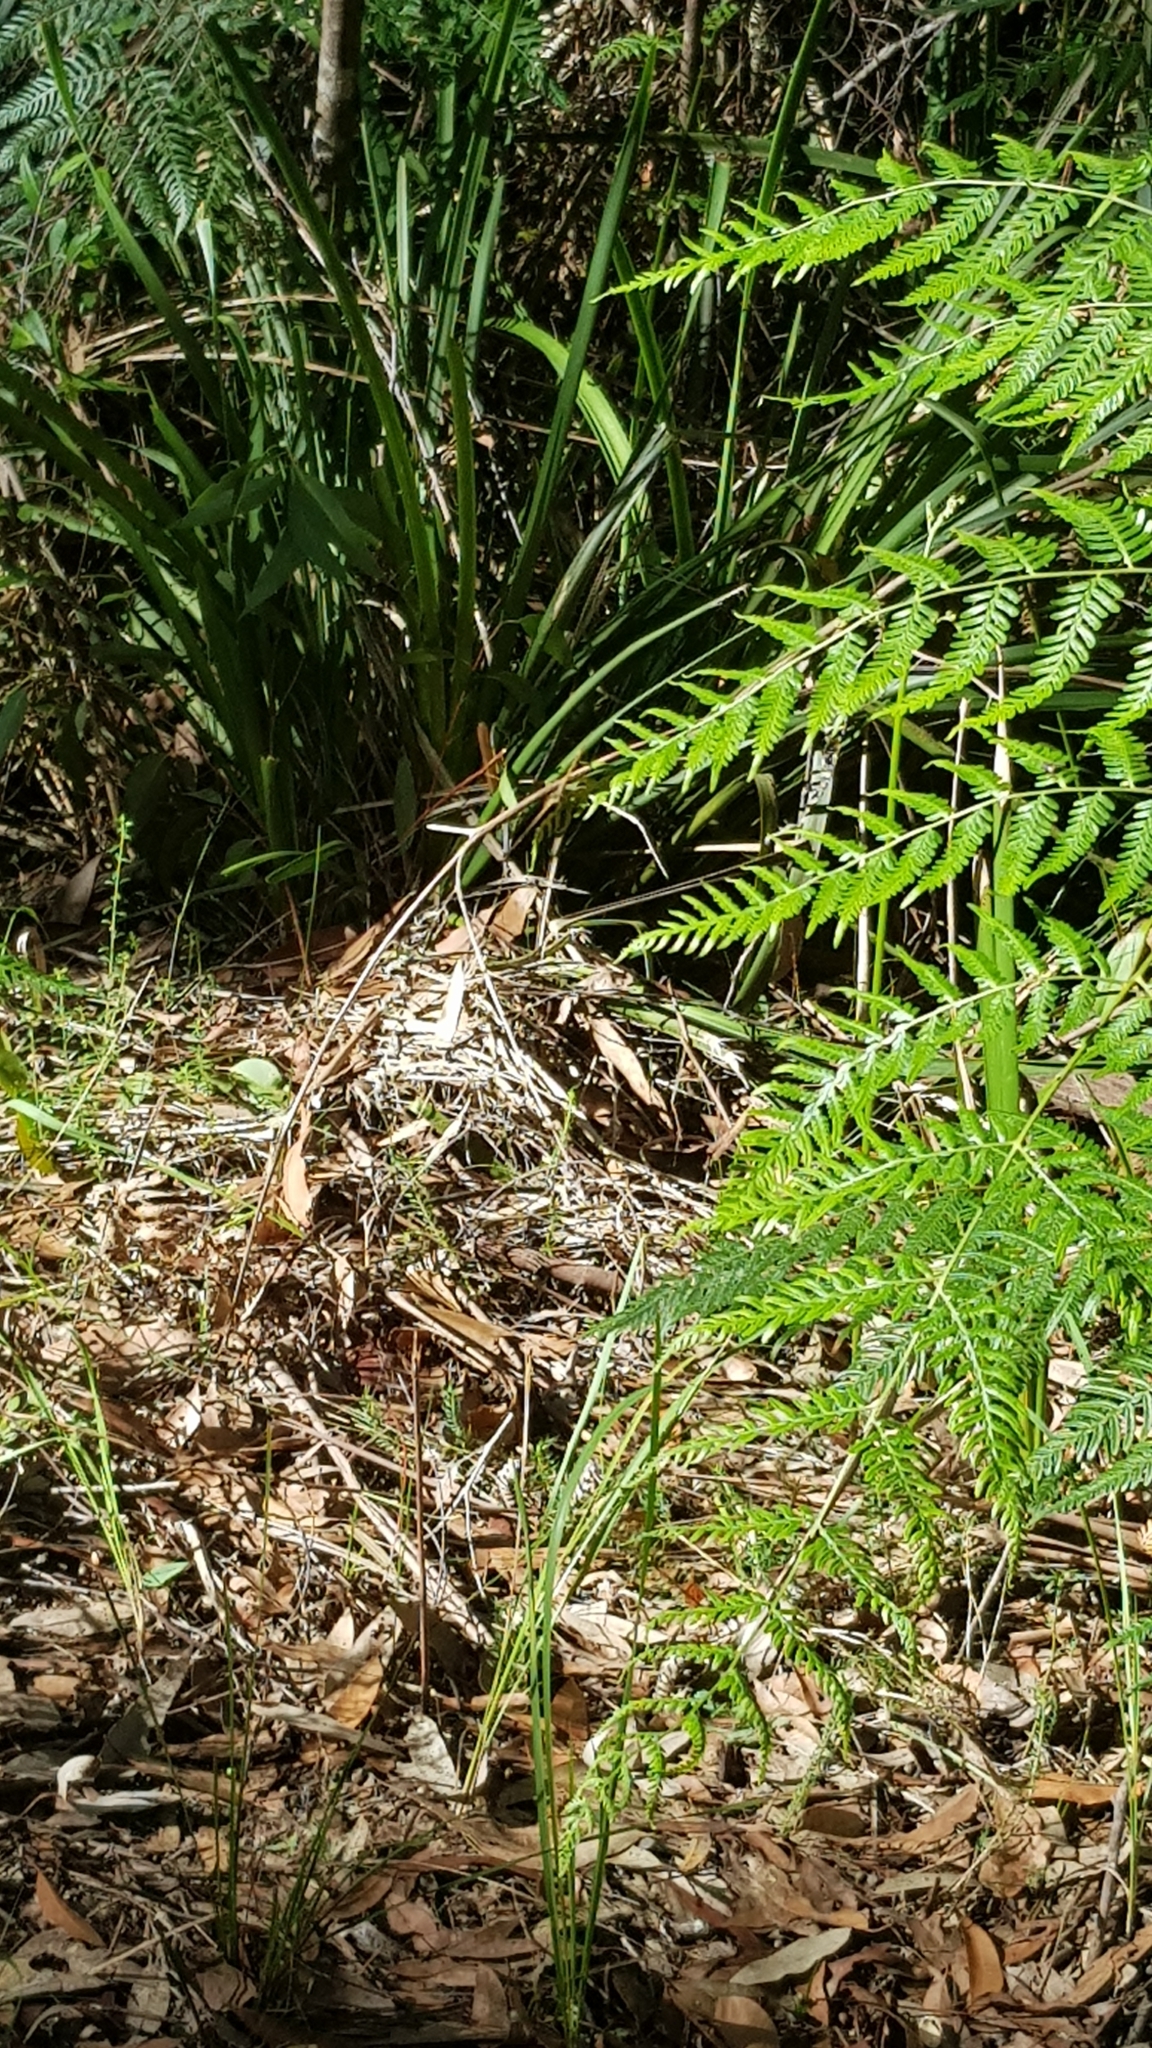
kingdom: Animalia
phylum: Arthropoda
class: Insecta
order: Lepidoptera
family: Nymphalidae
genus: Heteronympha
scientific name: Heteronympha banksii
